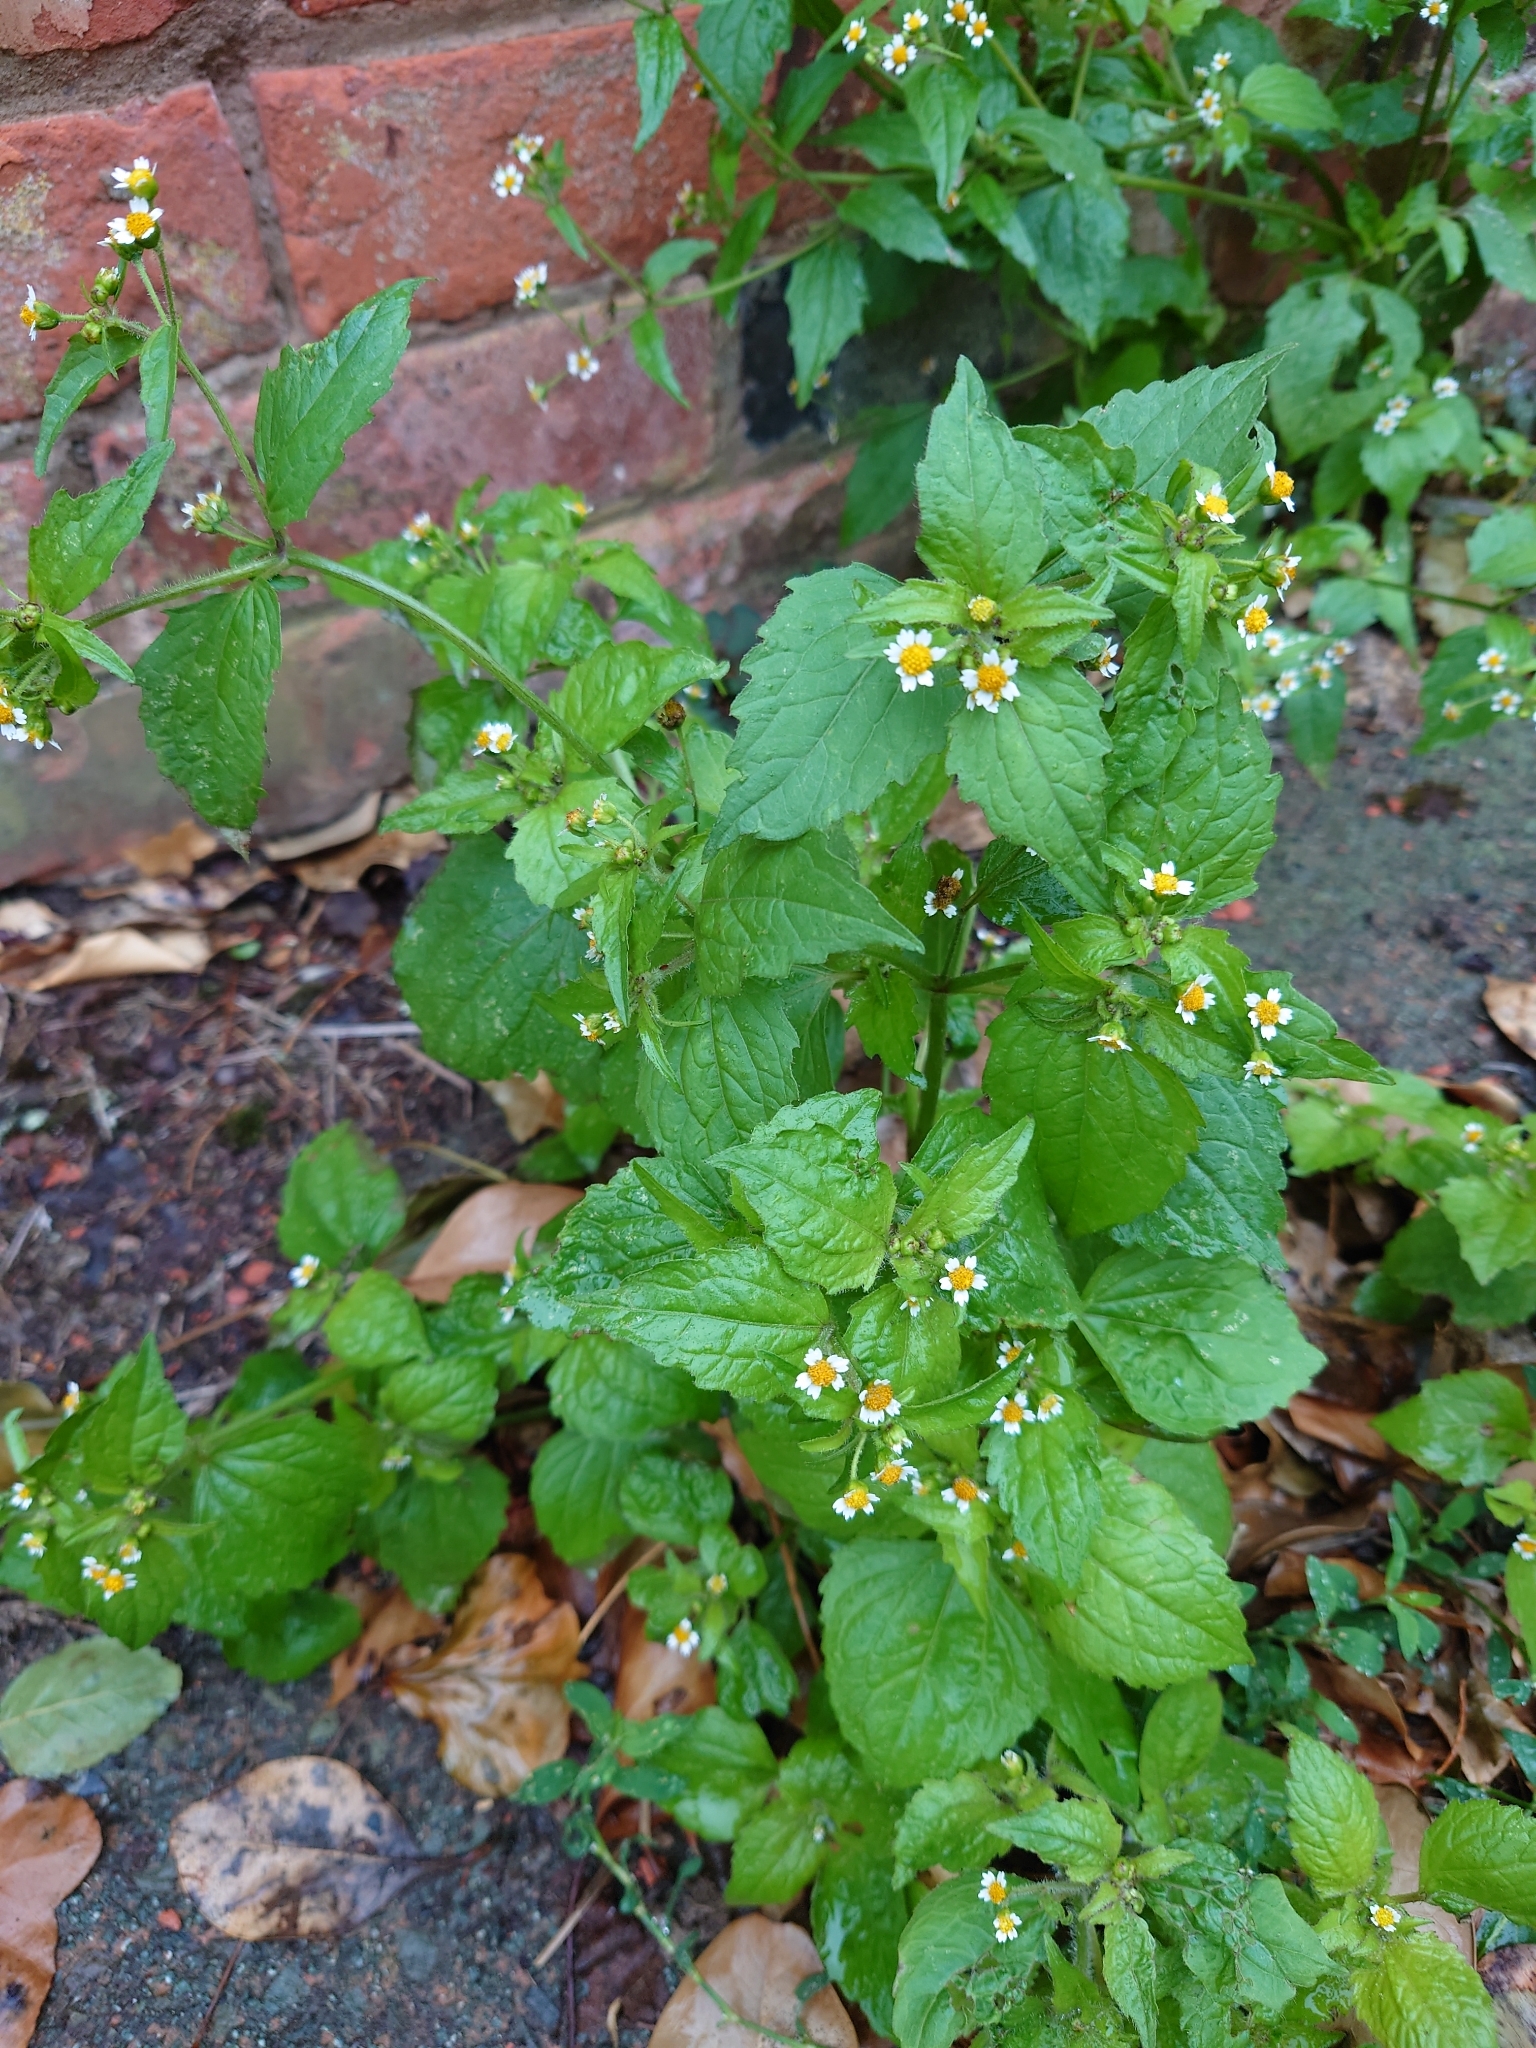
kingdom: Plantae
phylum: Tracheophyta
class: Magnoliopsida
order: Asterales
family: Asteraceae
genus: Galinsoga
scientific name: Galinsoga quadriradiata
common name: Shaggy soldier
